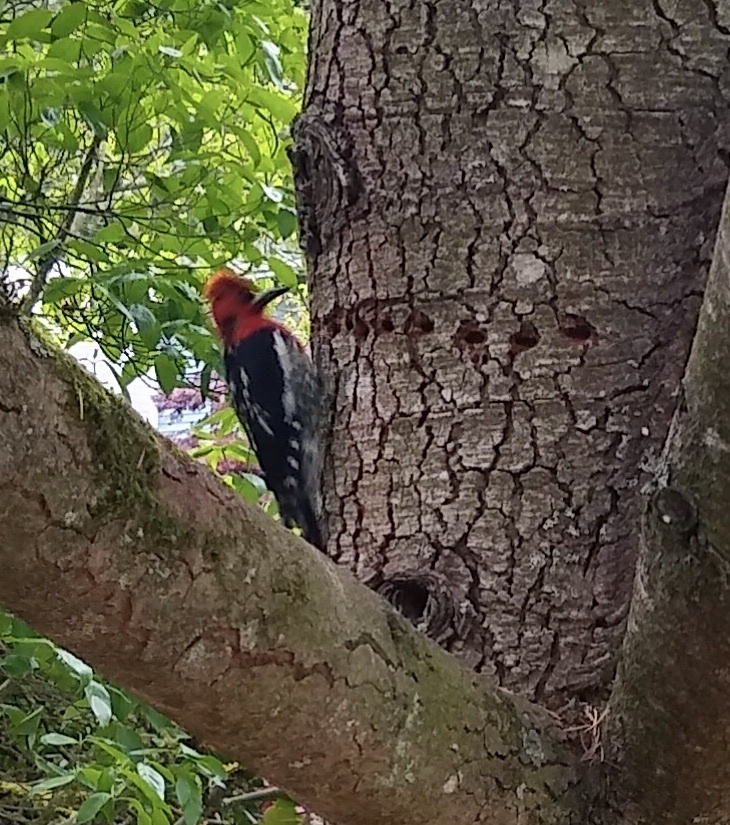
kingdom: Animalia
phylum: Chordata
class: Aves
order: Piciformes
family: Picidae
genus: Sphyrapicus
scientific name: Sphyrapicus ruber
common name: Red-breasted sapsucker
